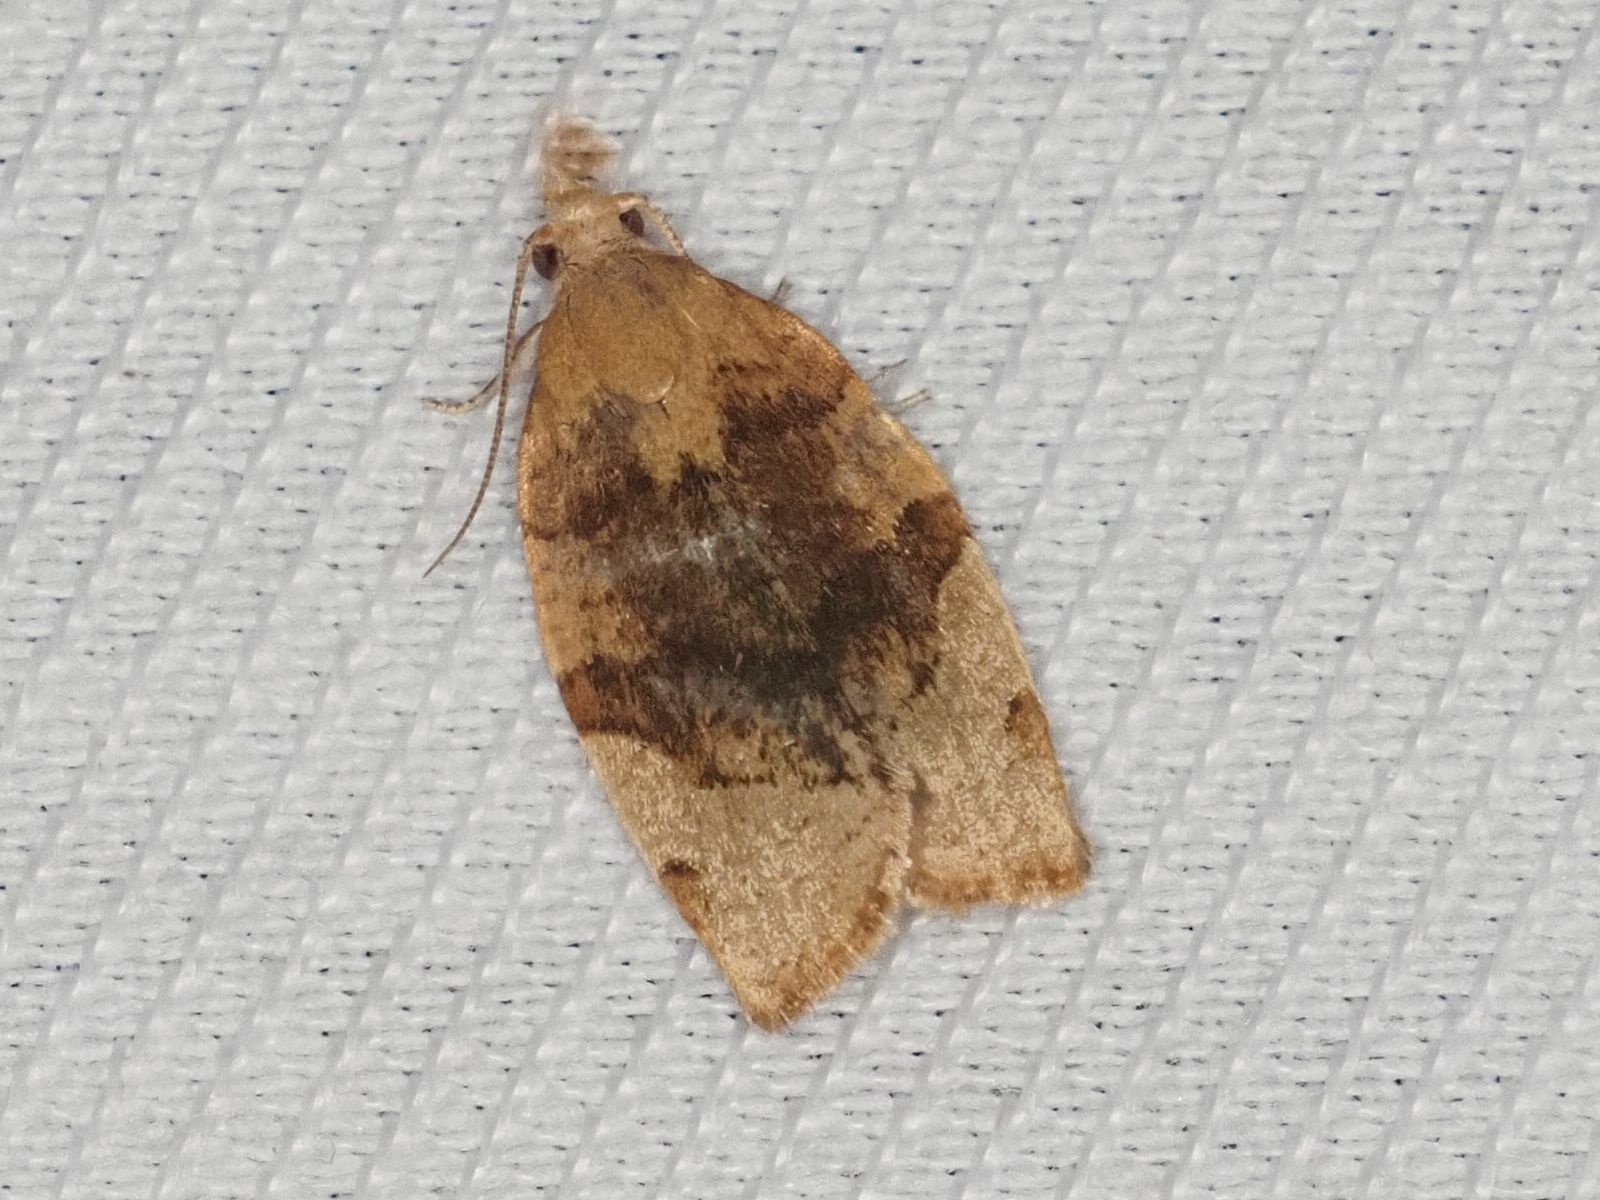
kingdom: Animalia
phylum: Arthropoda
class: Insecta
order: Lepidoptera
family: Tortricidae
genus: Pandemis
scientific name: Pandemis cerasana
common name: Barred fruit-tree tortrix
